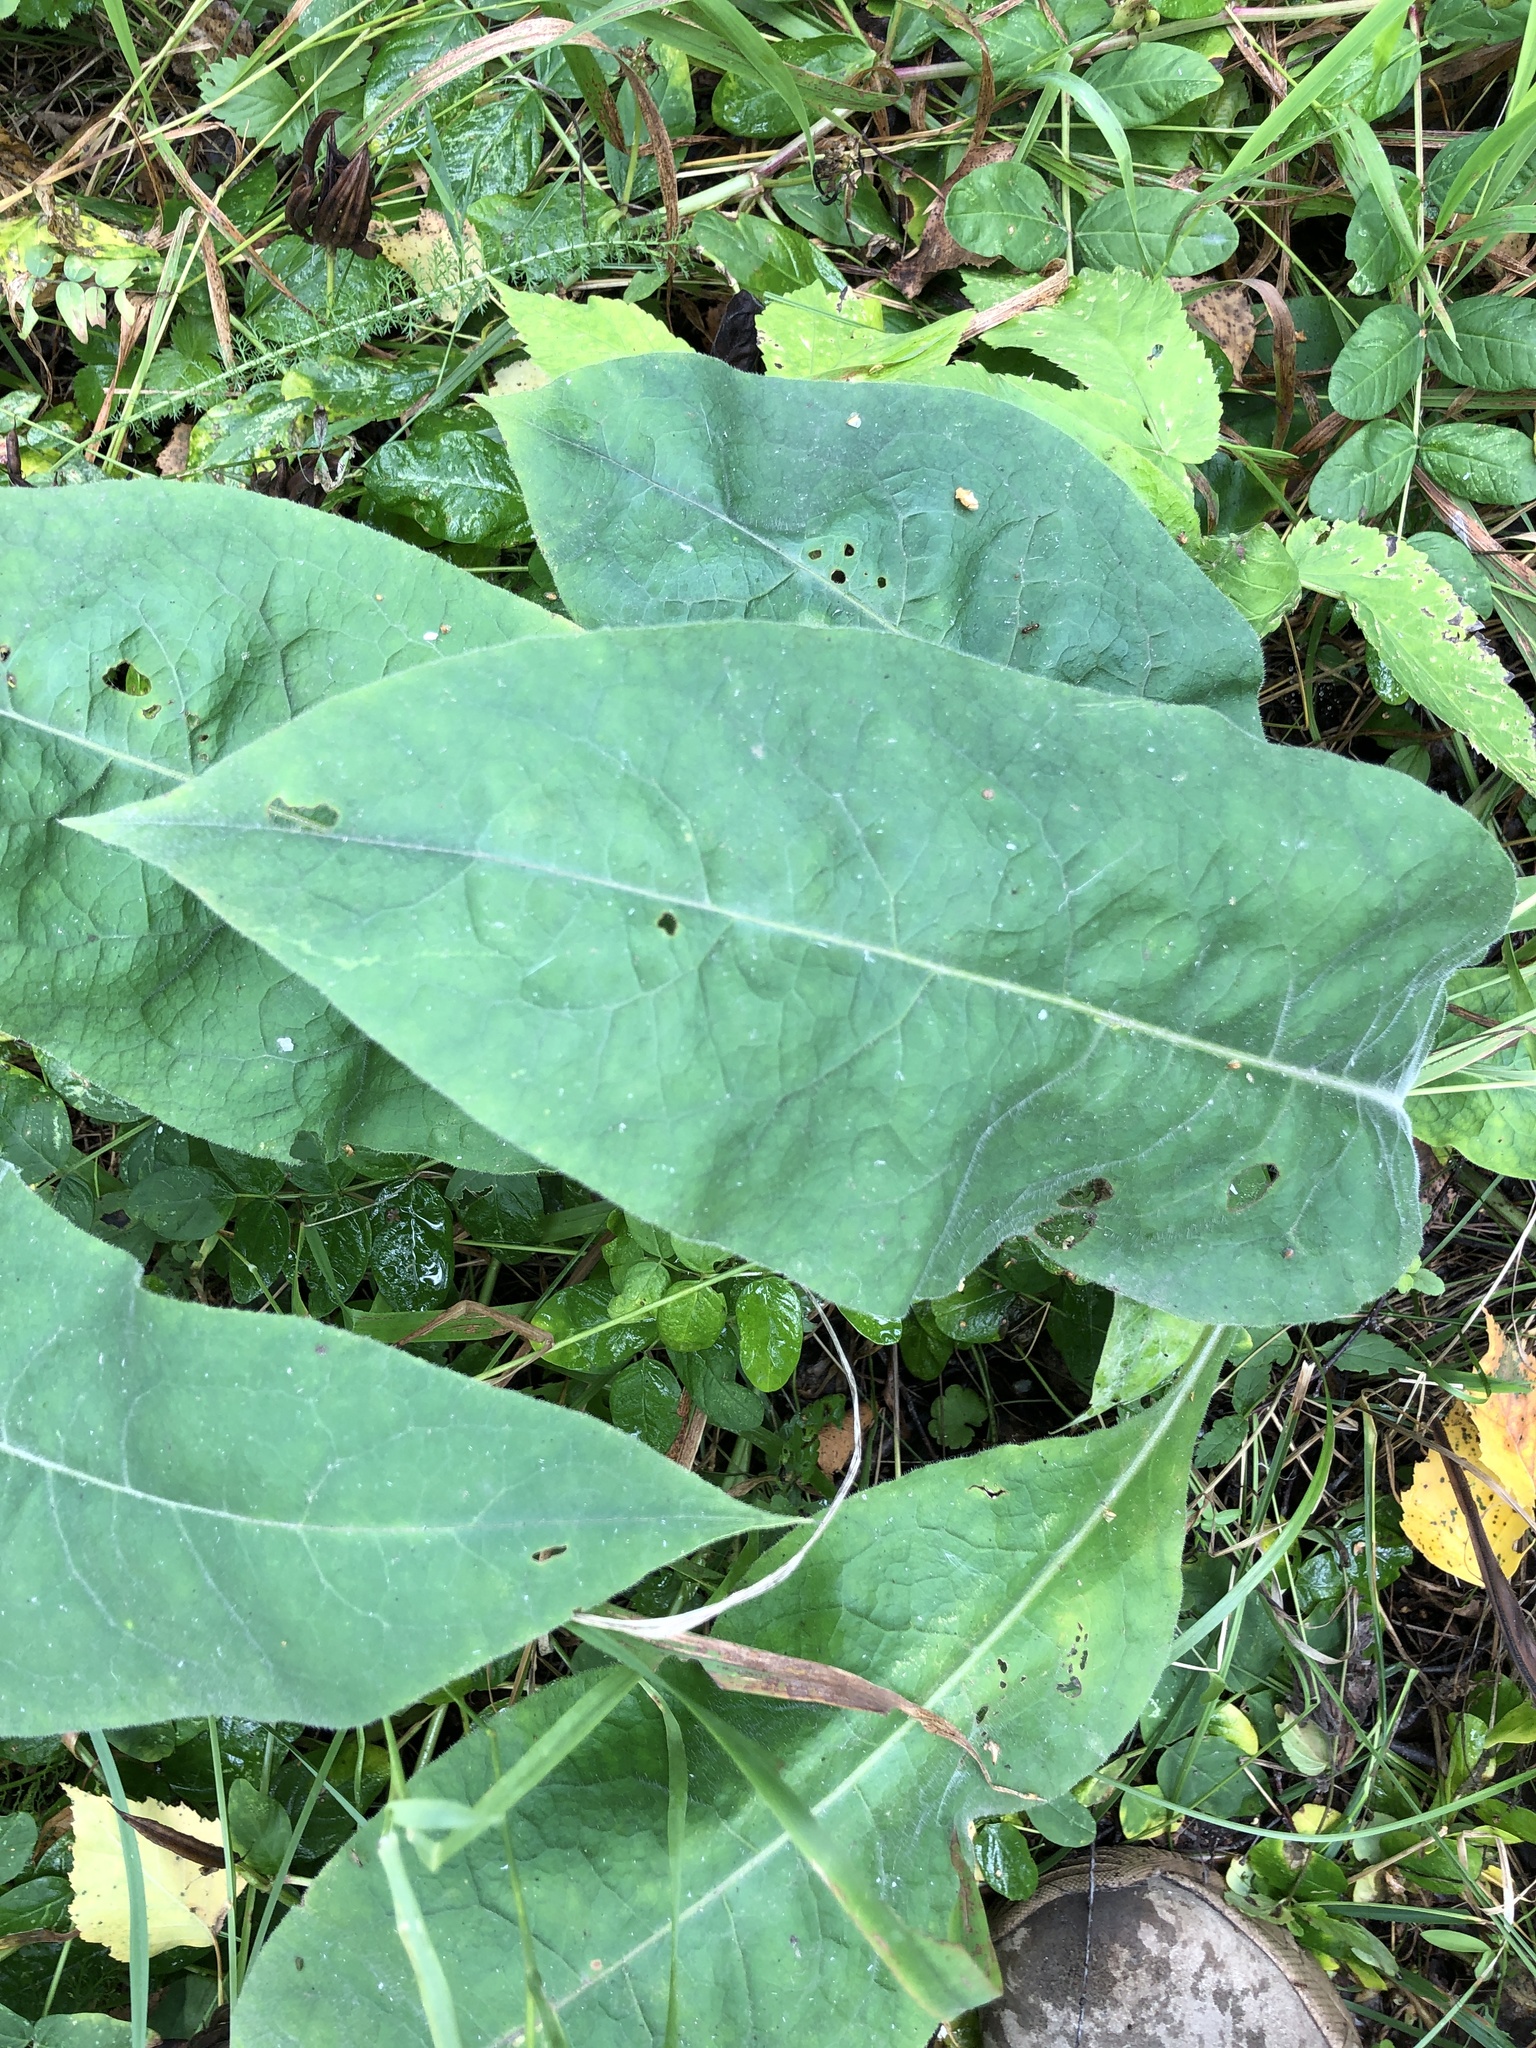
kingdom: Plantae
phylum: Tracheophyta
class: Magnoliopsida
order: Boraginales
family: Boraginaceae
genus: Pulmonaria
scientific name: Pulmonaria mollis
